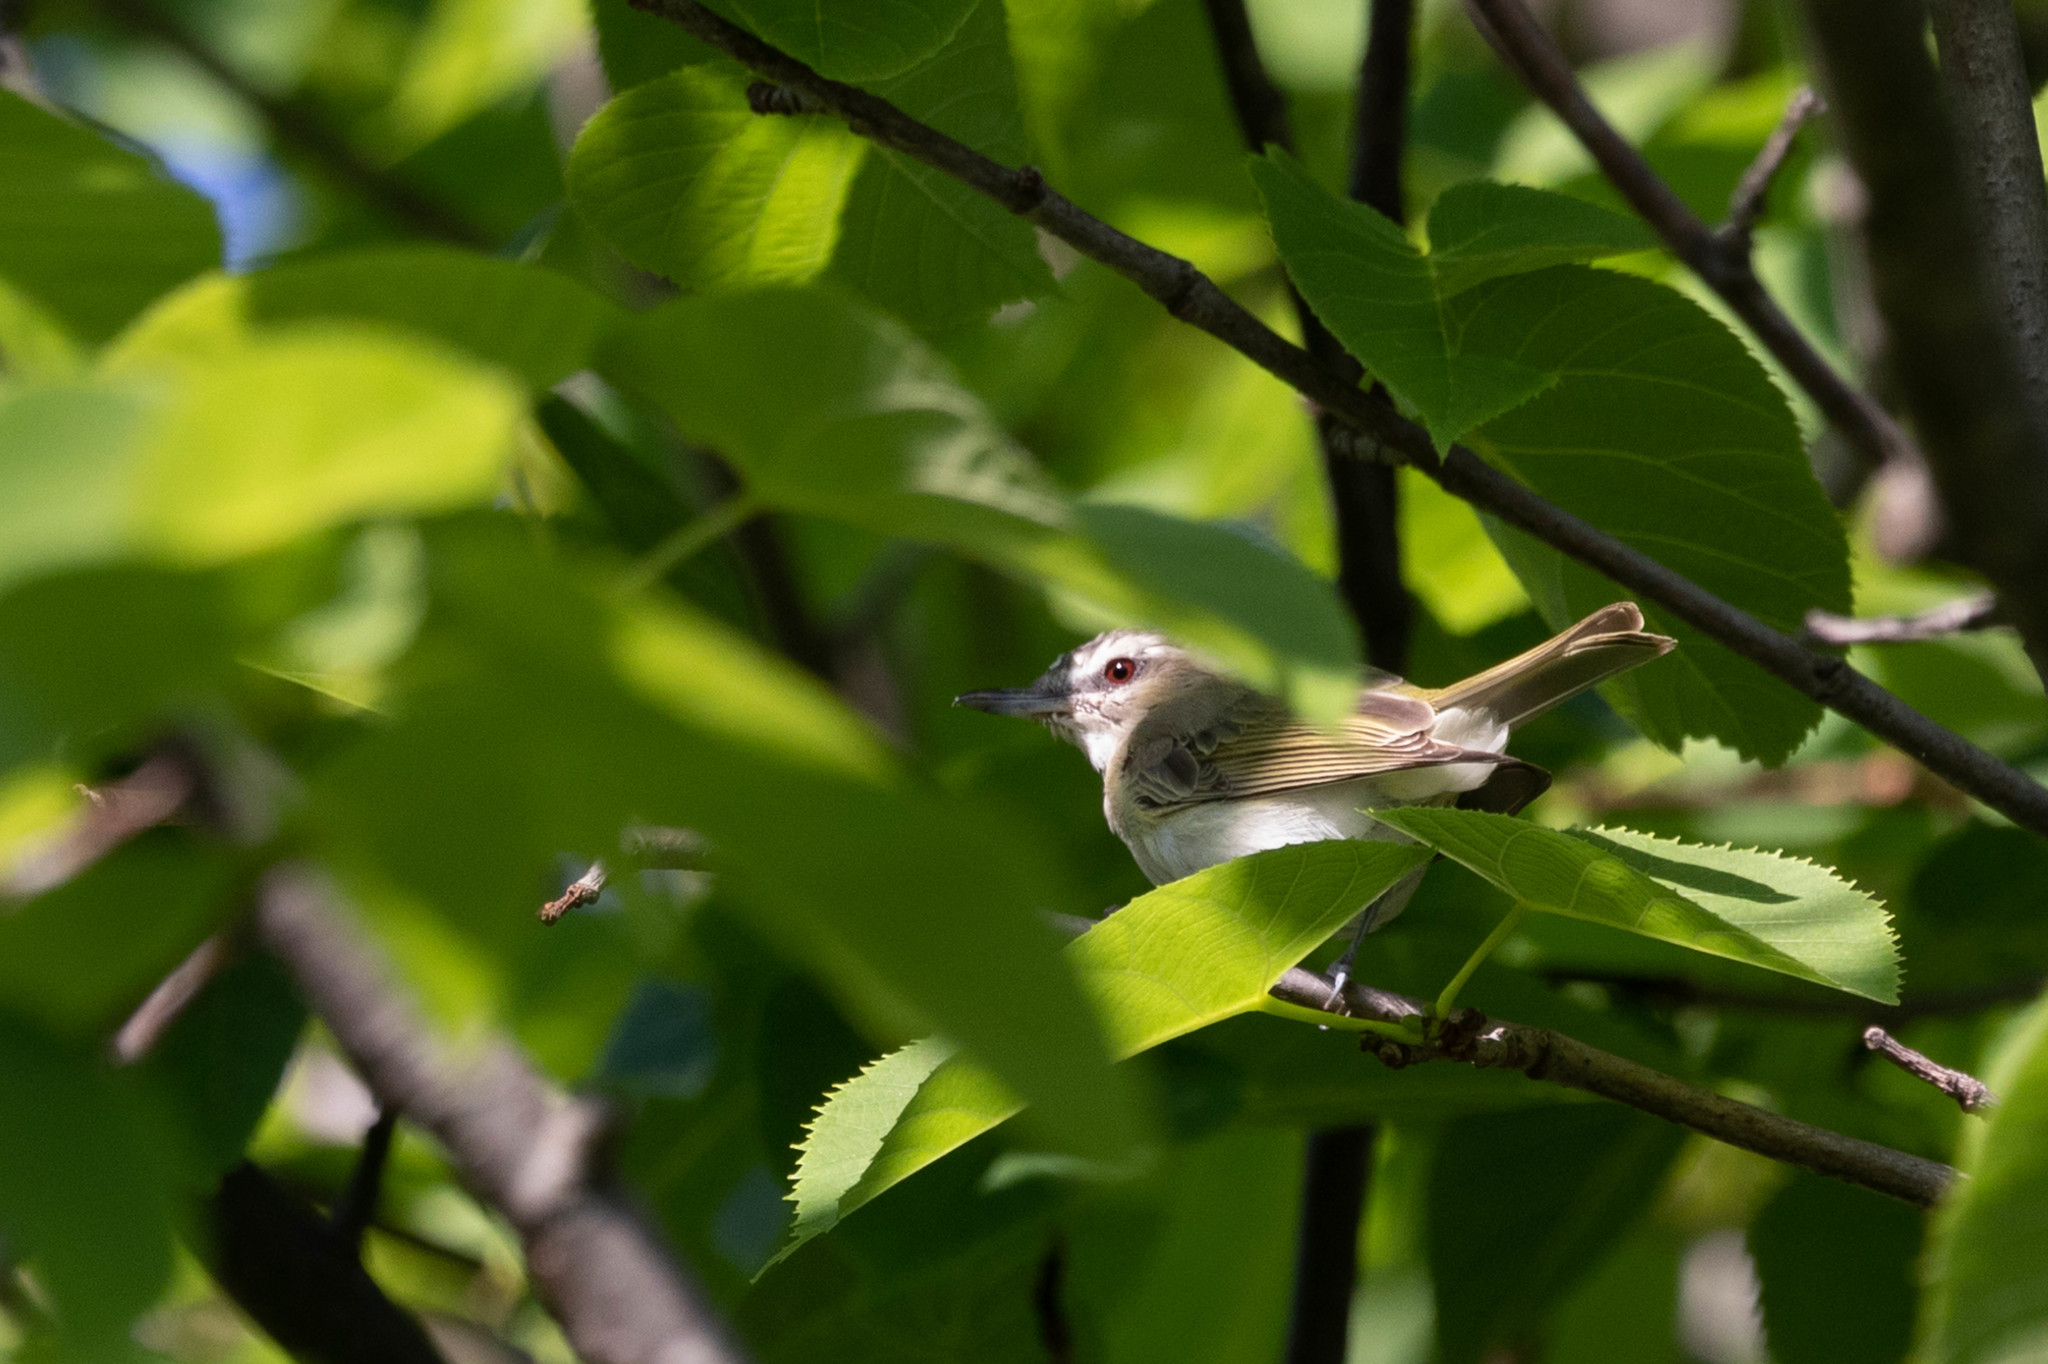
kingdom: Animalia
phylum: Chordata
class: Aves
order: Passeriformes
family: Vireonidae
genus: Vireo
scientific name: Vireo olivaceus
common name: Red-eyed vireo
